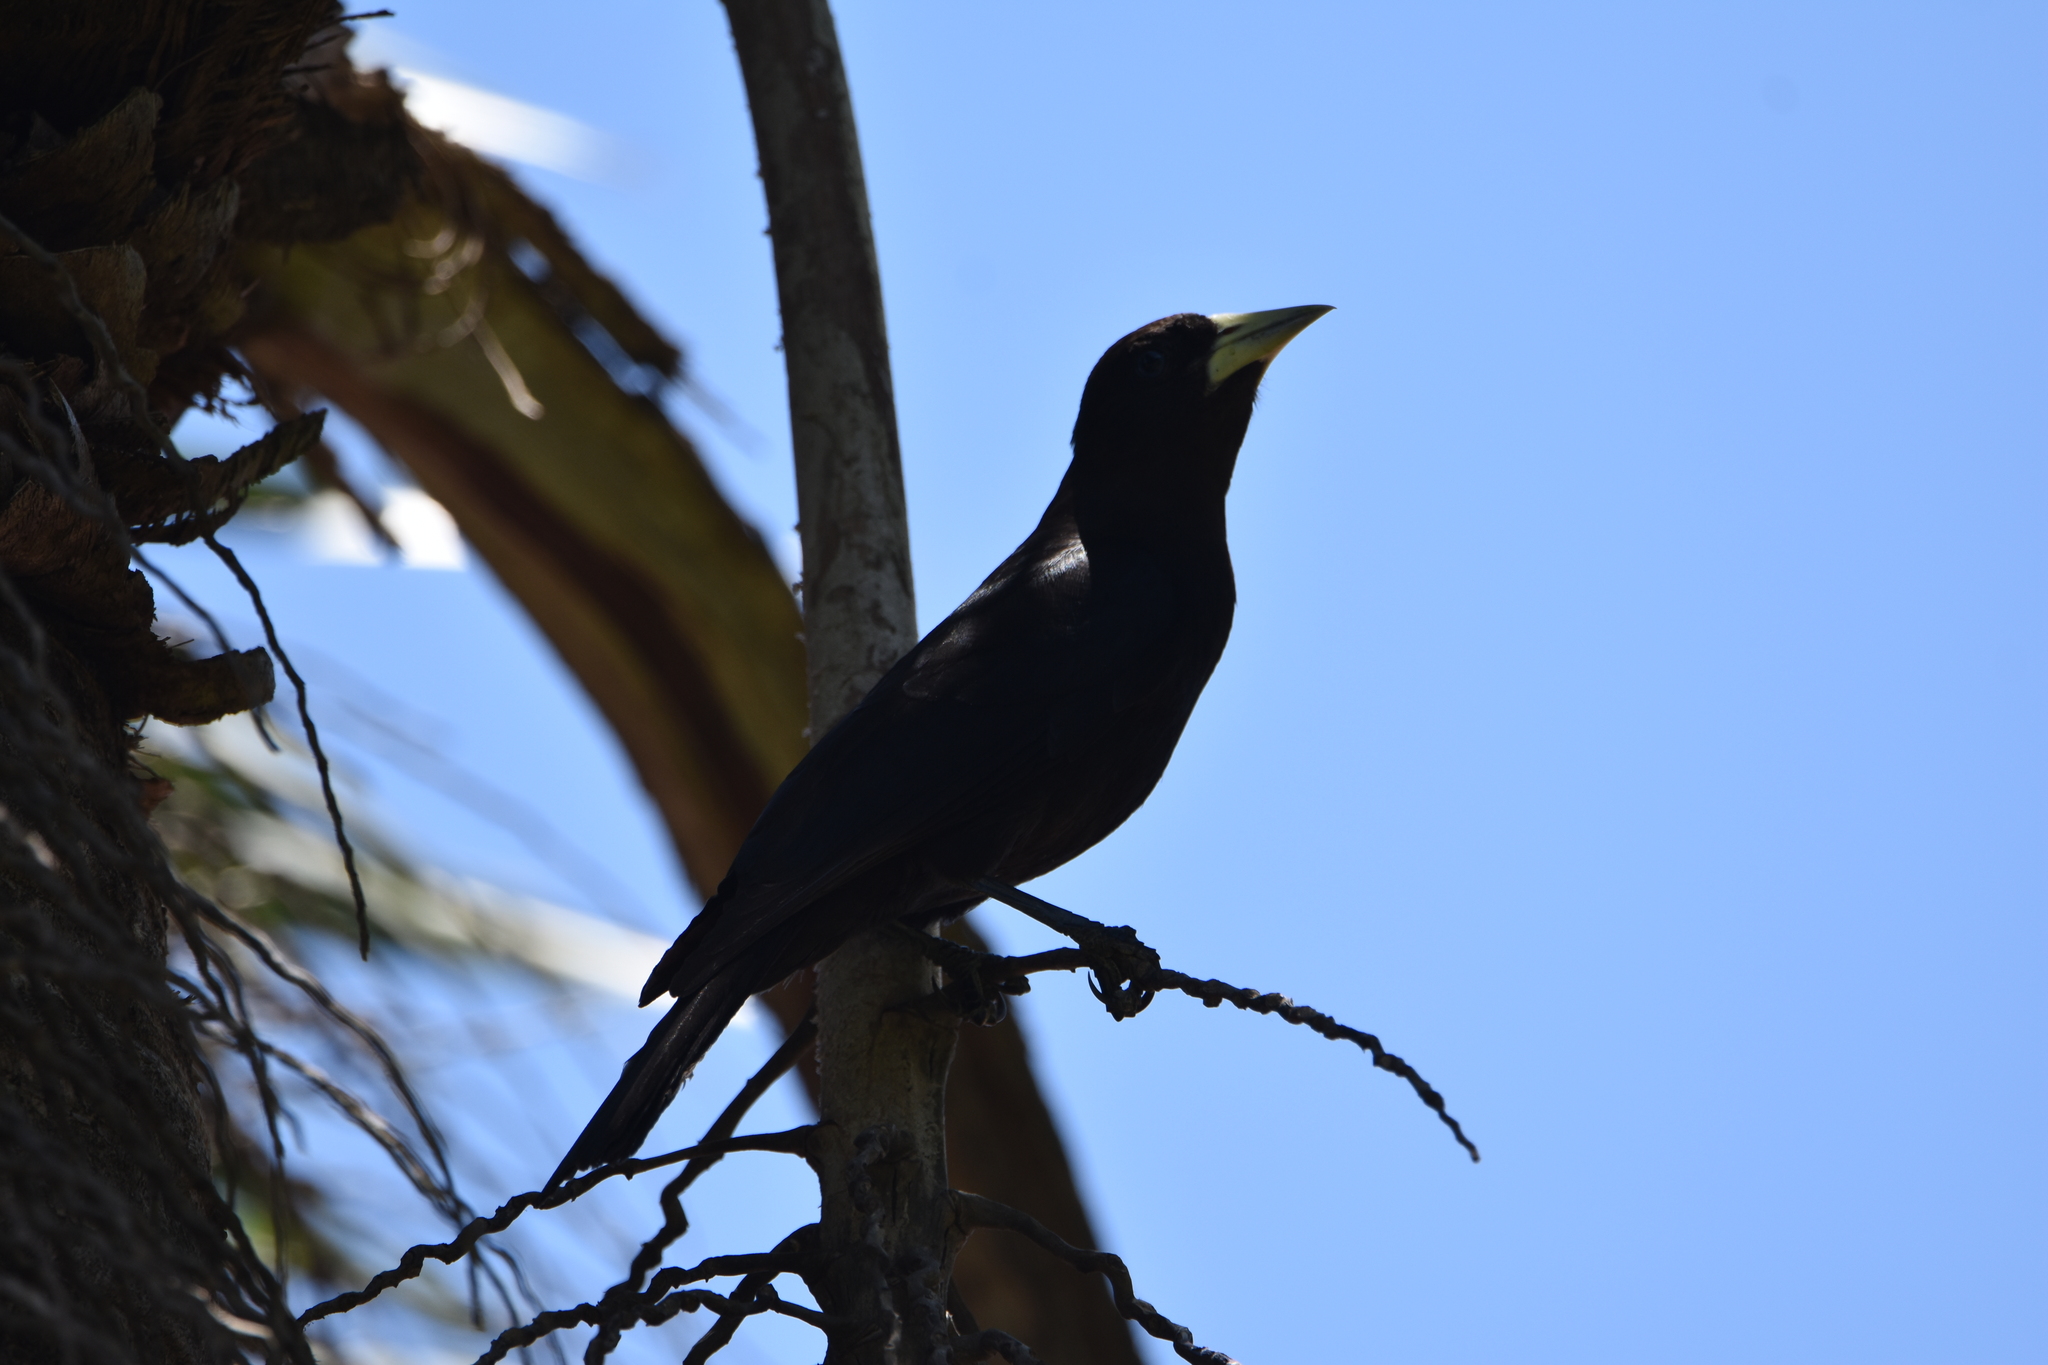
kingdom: Animalia
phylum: Chordata
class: Aves
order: Passeriformes
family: Icteridae
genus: Cacicus
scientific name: Cacicus haemorrhous
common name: Red-rumped cacique
